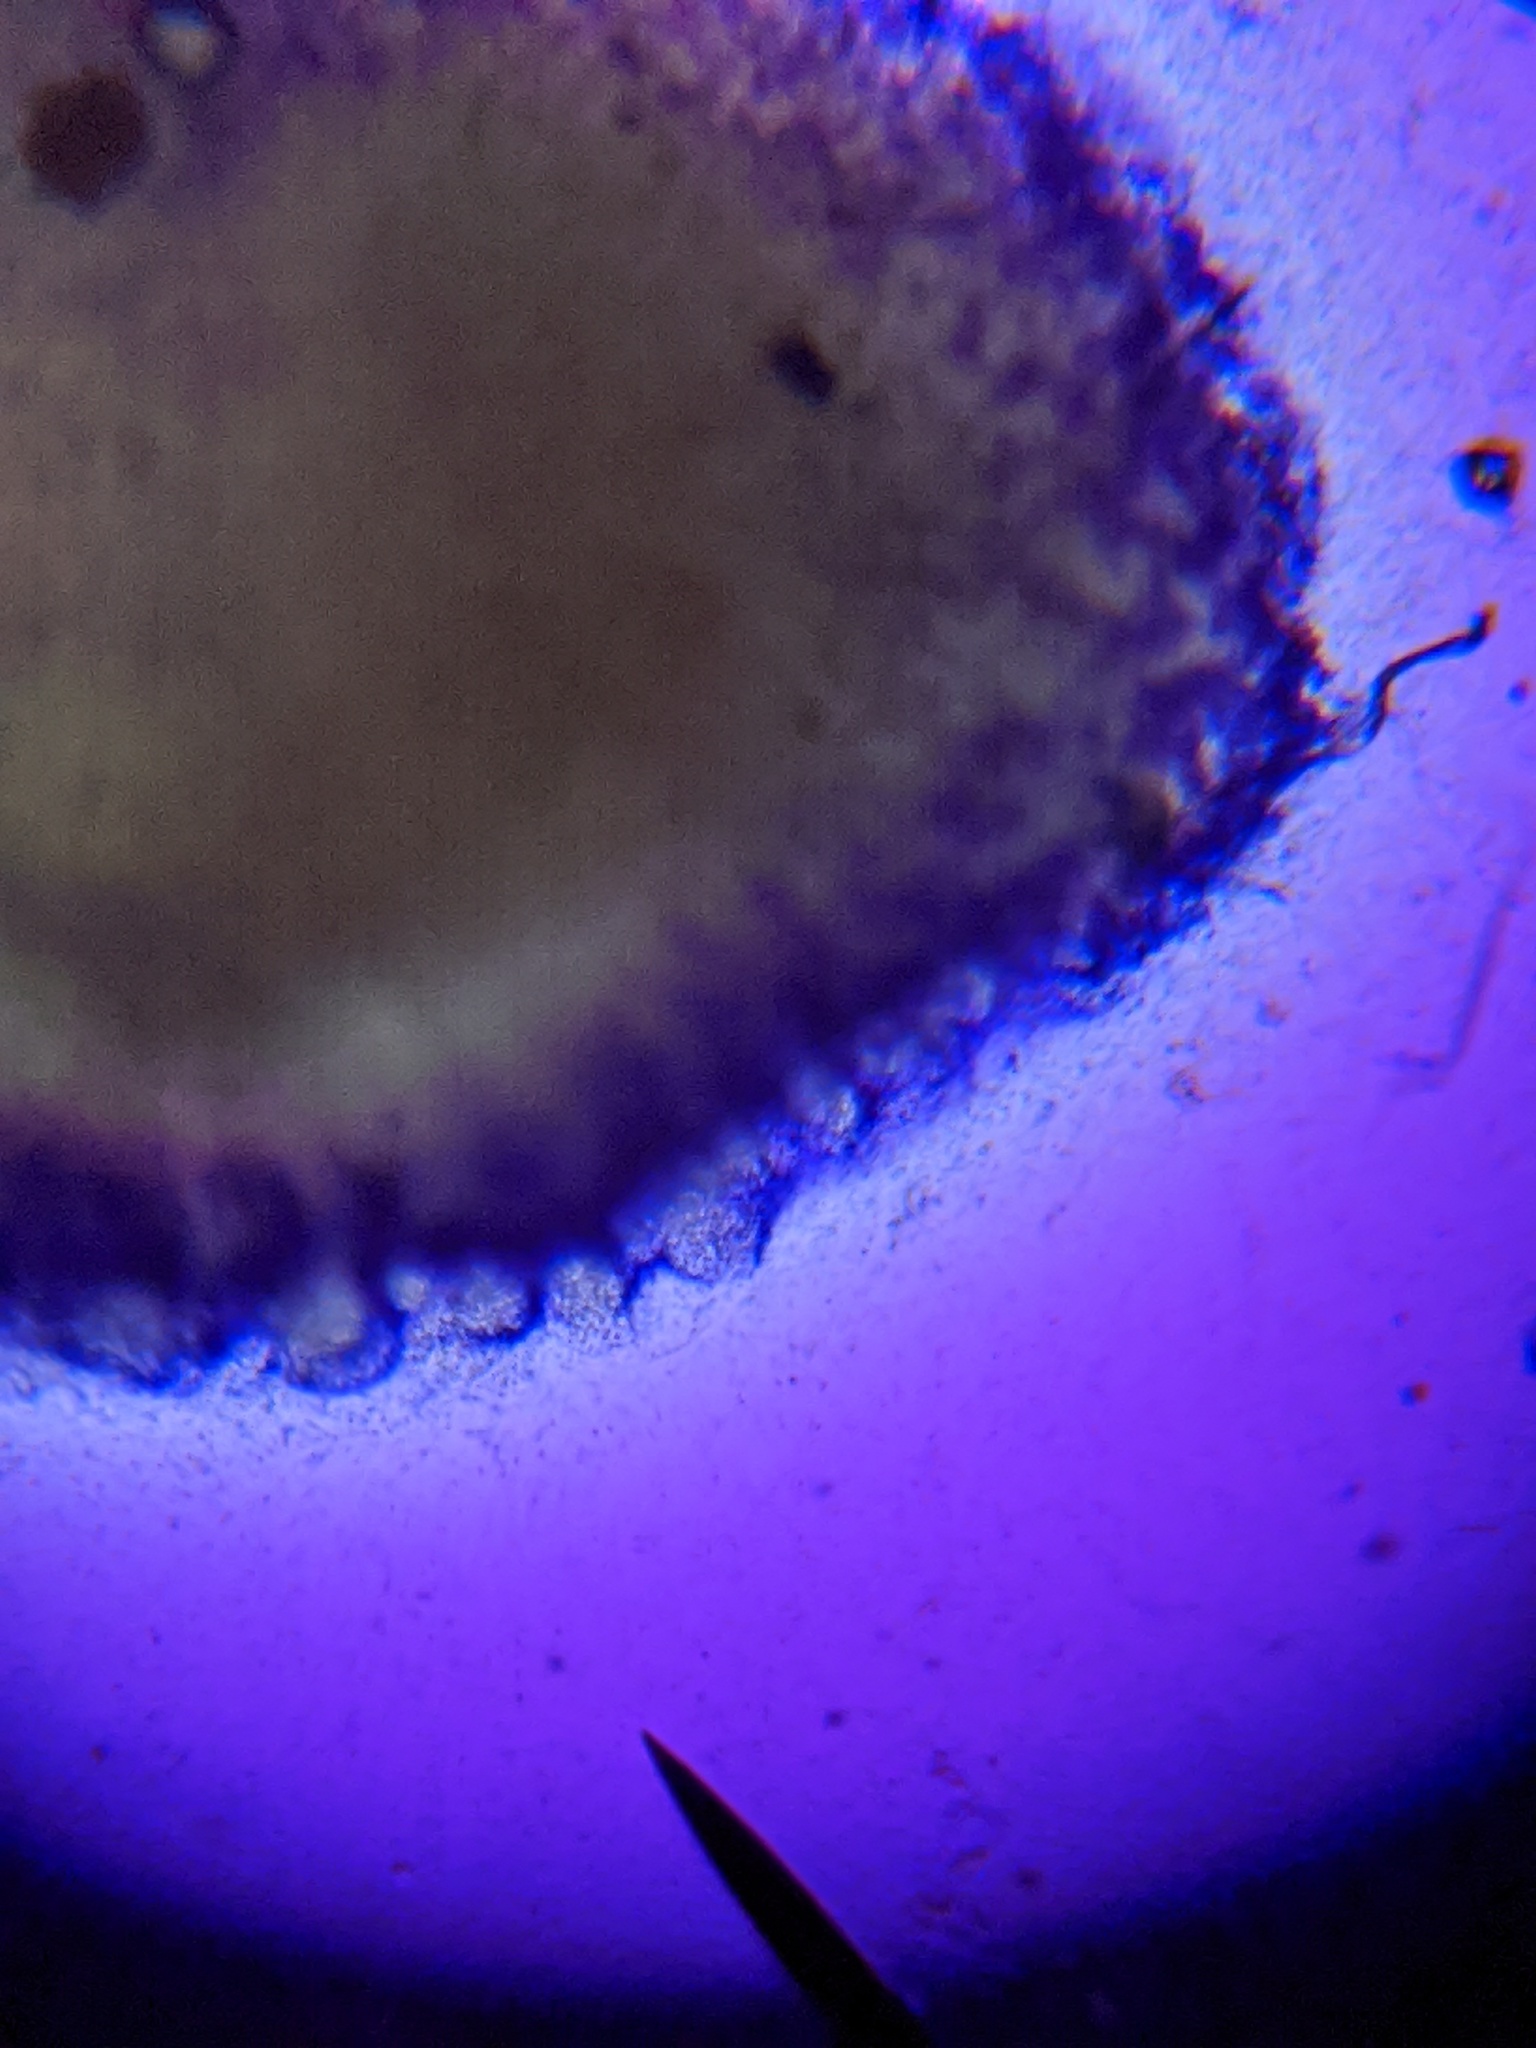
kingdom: Fungi
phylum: Basidiomycota
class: Atractiellomycetes
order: Atractiellales
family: Phleogenaceae
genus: Helicogloea
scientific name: Helicogloea compressa
